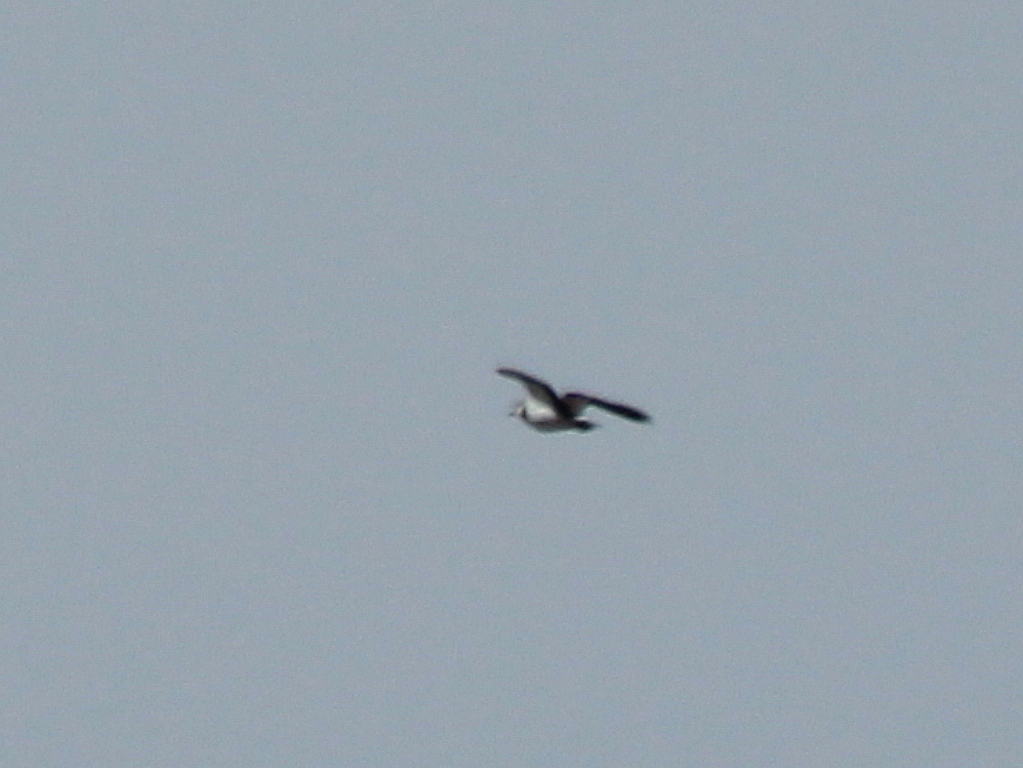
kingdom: Animalia
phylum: Chordata
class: Aves
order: Charadriiformes
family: Charadriidae
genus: Vanellus
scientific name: Vanellus vanellus
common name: Northern lapwing
